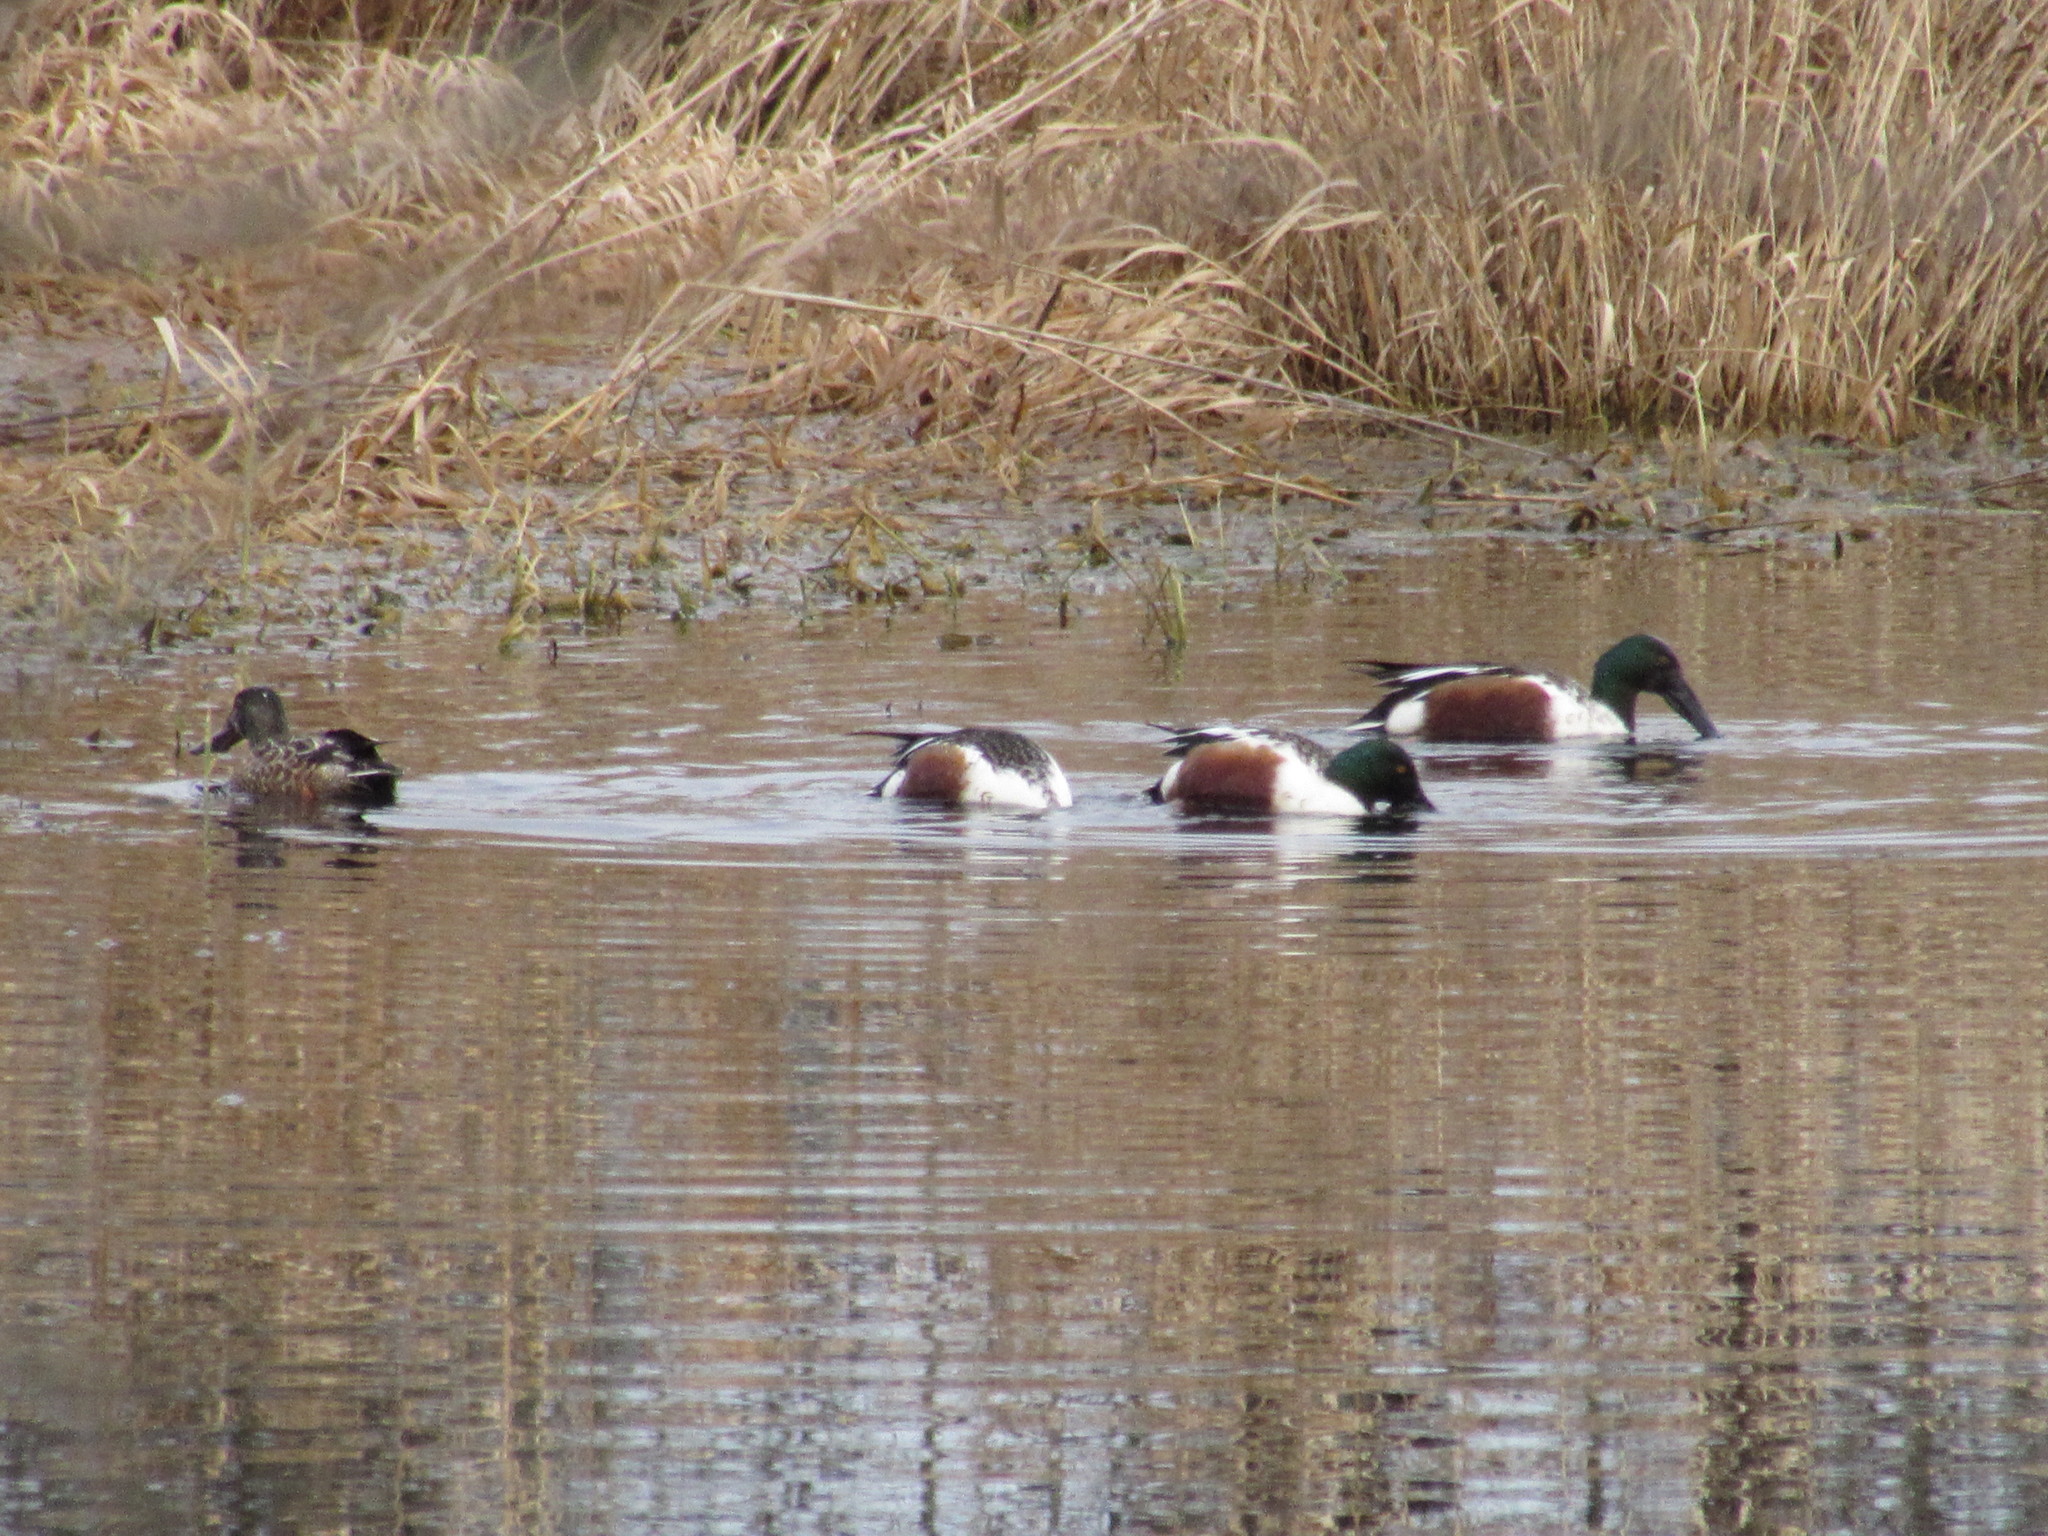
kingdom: Animalia
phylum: Chordata
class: Aves
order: Anseriformes
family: Anatidae
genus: Spatula
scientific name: Spatula clypeata
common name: Northern shoveler
